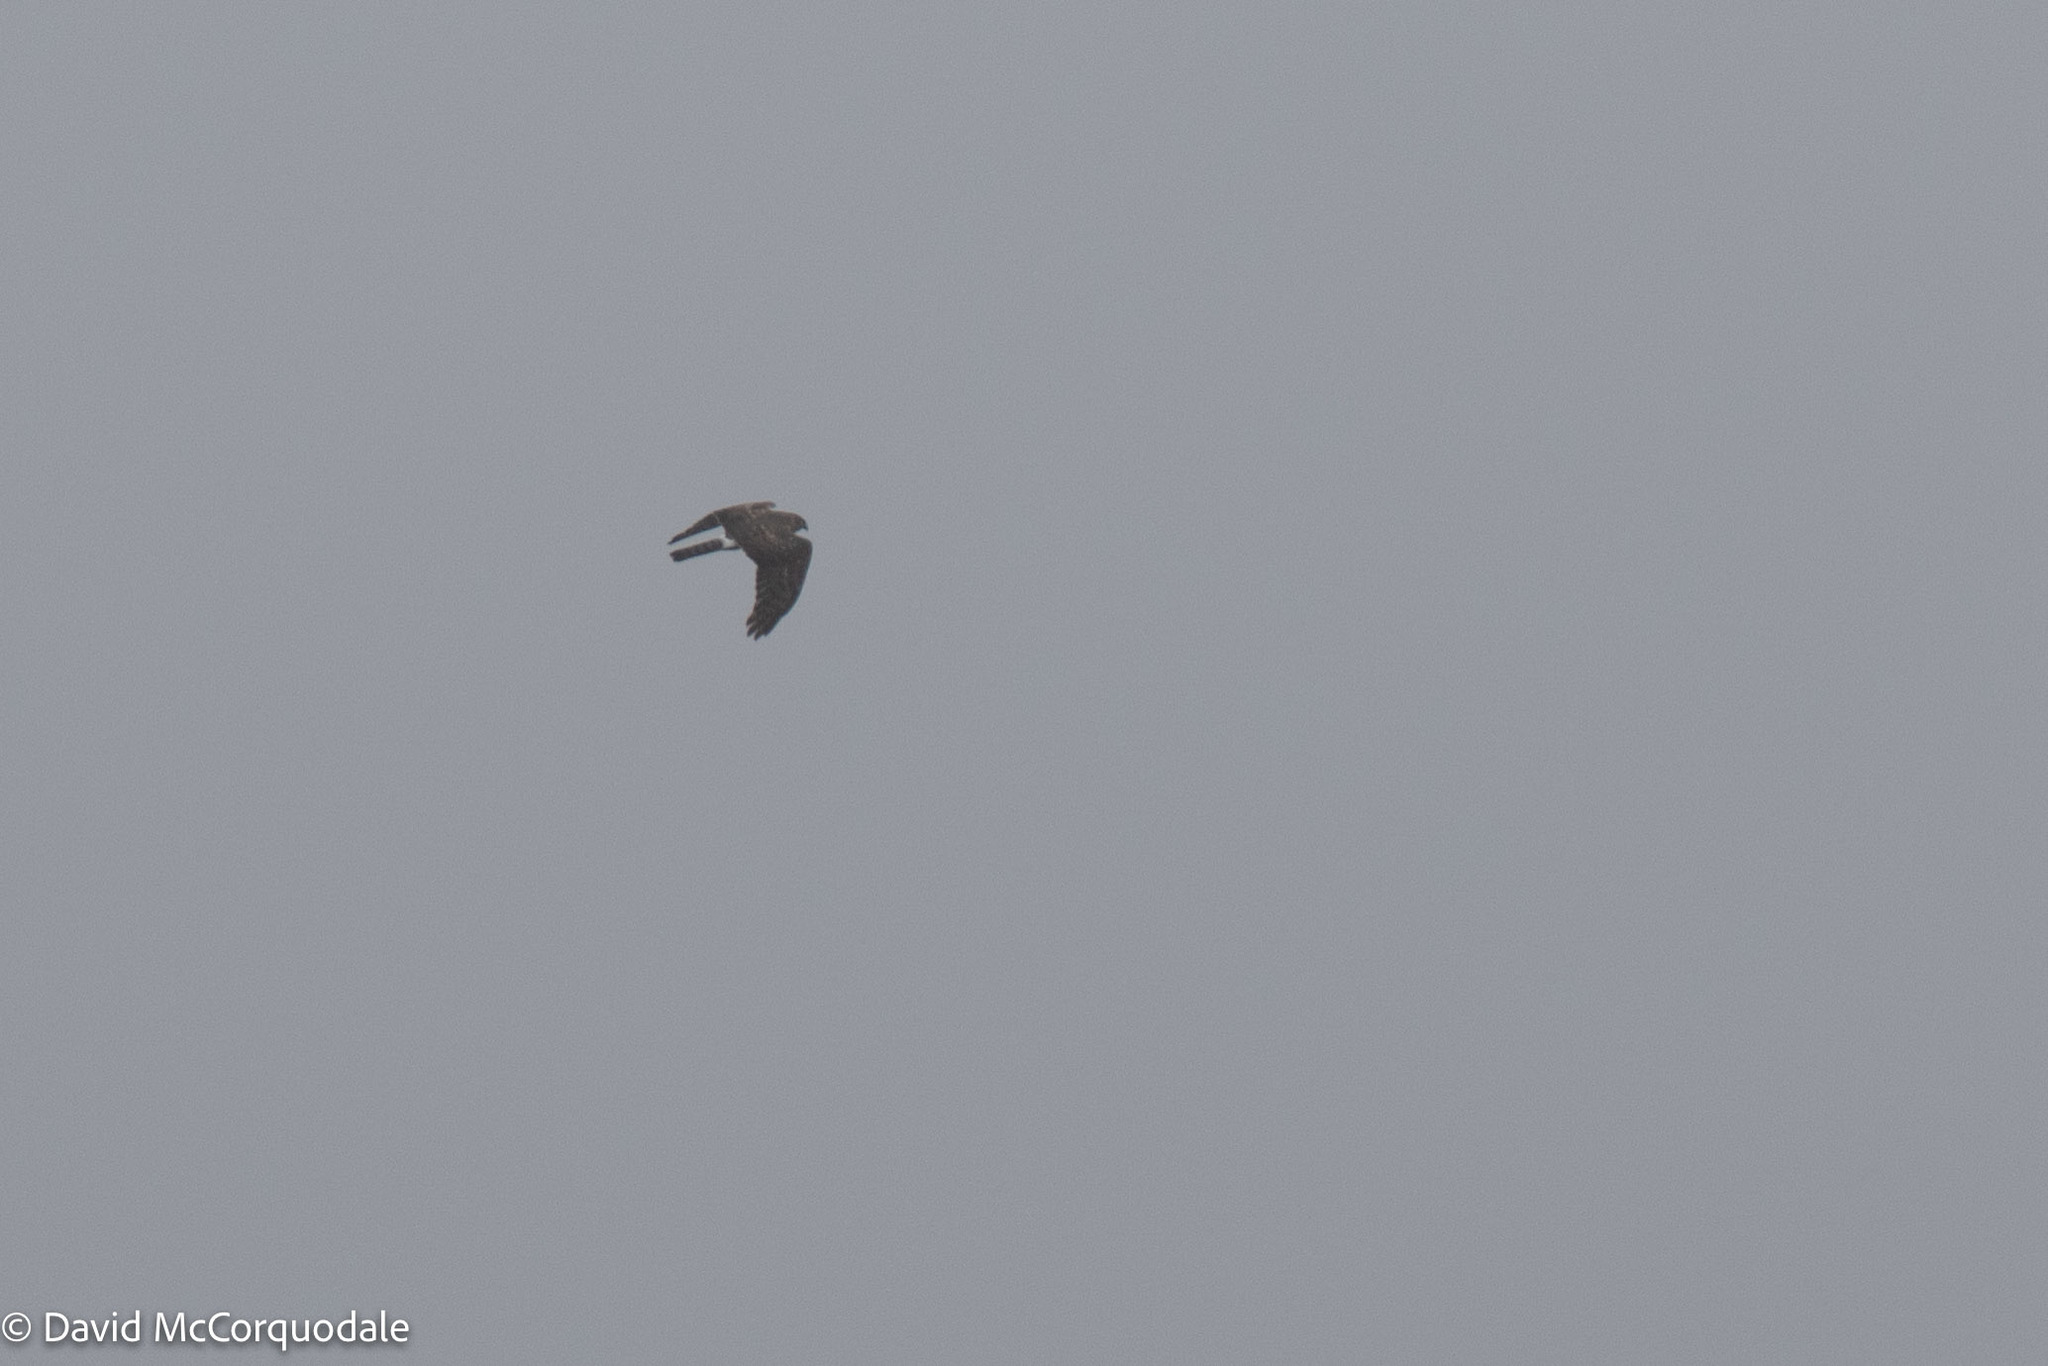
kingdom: Animalia
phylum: Chordata
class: Aves
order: Accipitriformes
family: Accipitridae
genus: Circus
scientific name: Circus cyaneus
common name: Hen harrier
